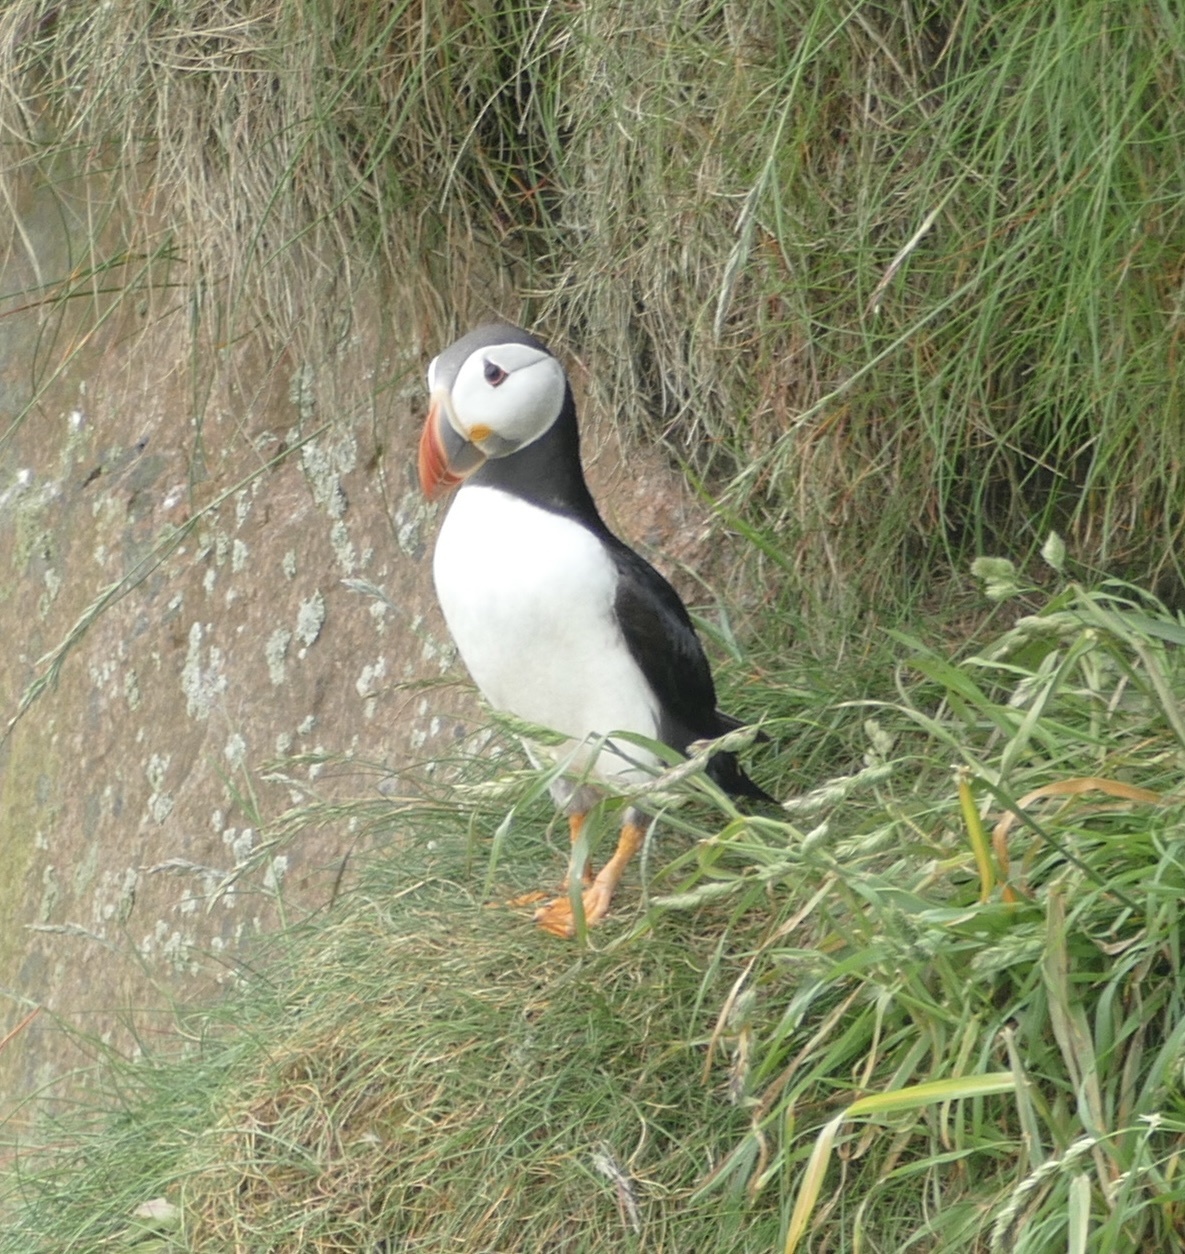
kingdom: Animalia
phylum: Chordata
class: Aves
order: Charadriiformes
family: Alcidae
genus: Fratercula
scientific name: Fratercula arctica
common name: Atlantic puffin
